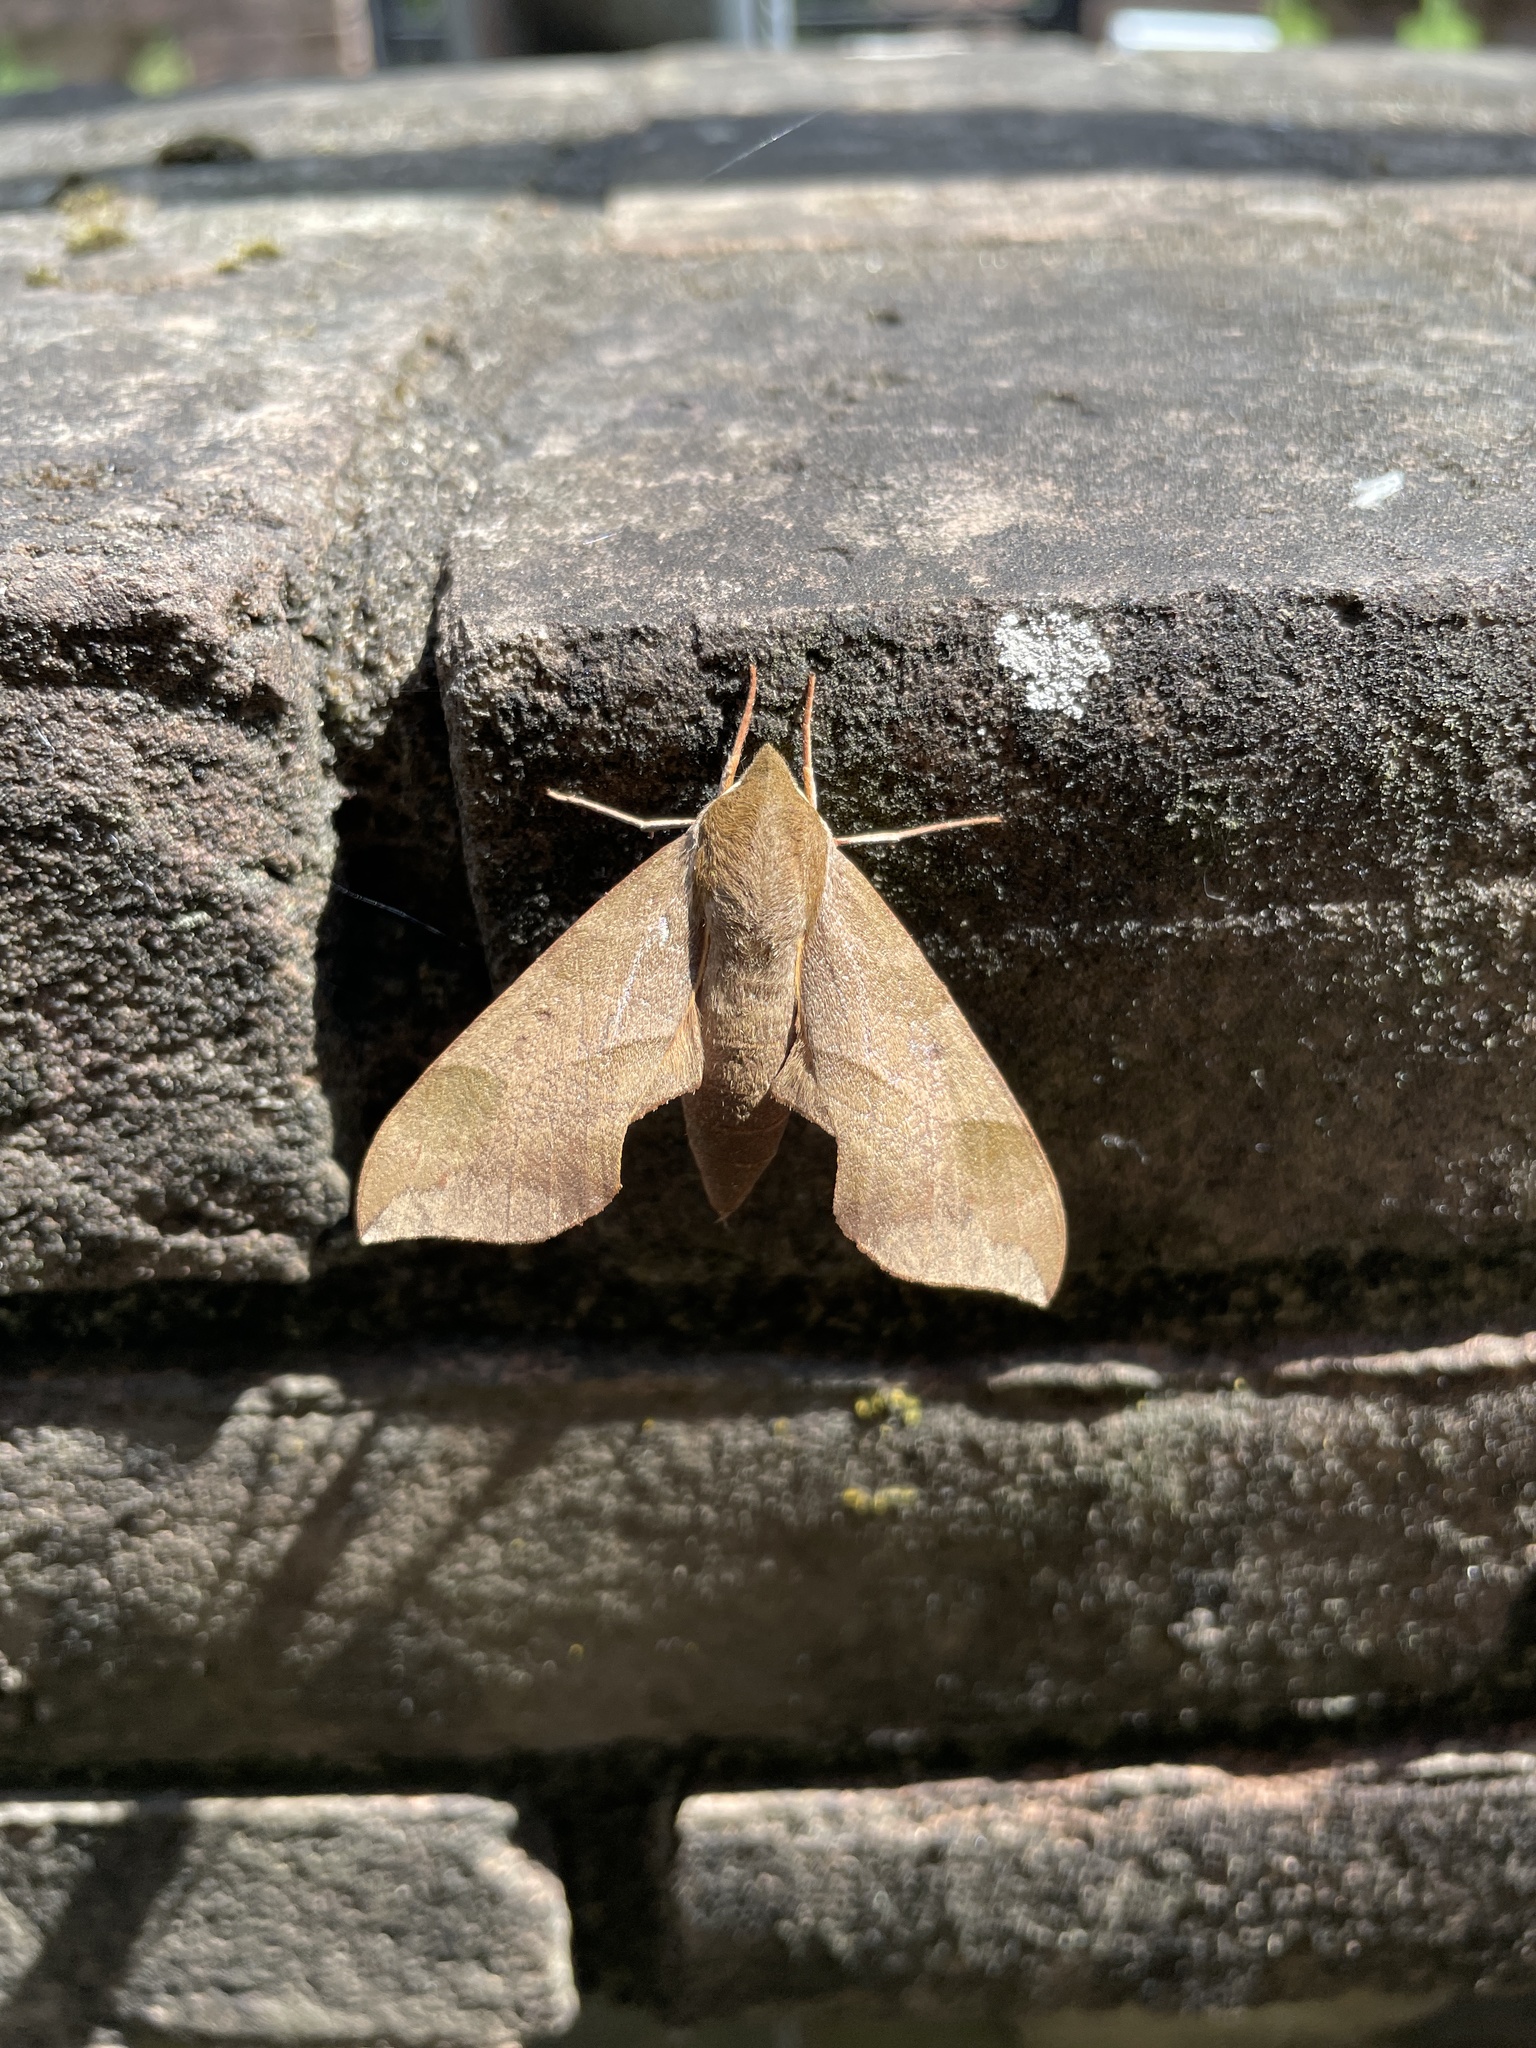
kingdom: Animalia
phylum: Arthropoda
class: Insecta
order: Lepidoptera
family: Sphingidae
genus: Darapsa
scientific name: Darapsa myron
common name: Hog sphinx
